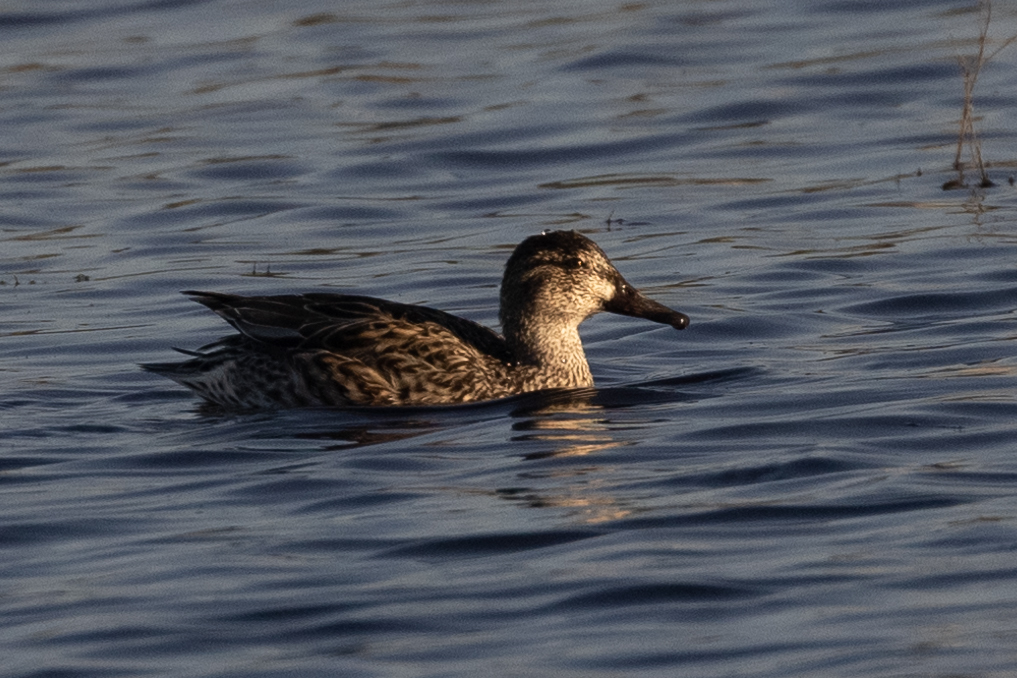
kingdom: Animalia
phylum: Chordata
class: Aves
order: Anseriformes
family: Anatidae
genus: Anas
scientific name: Anas crecca
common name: Eurasian teal
